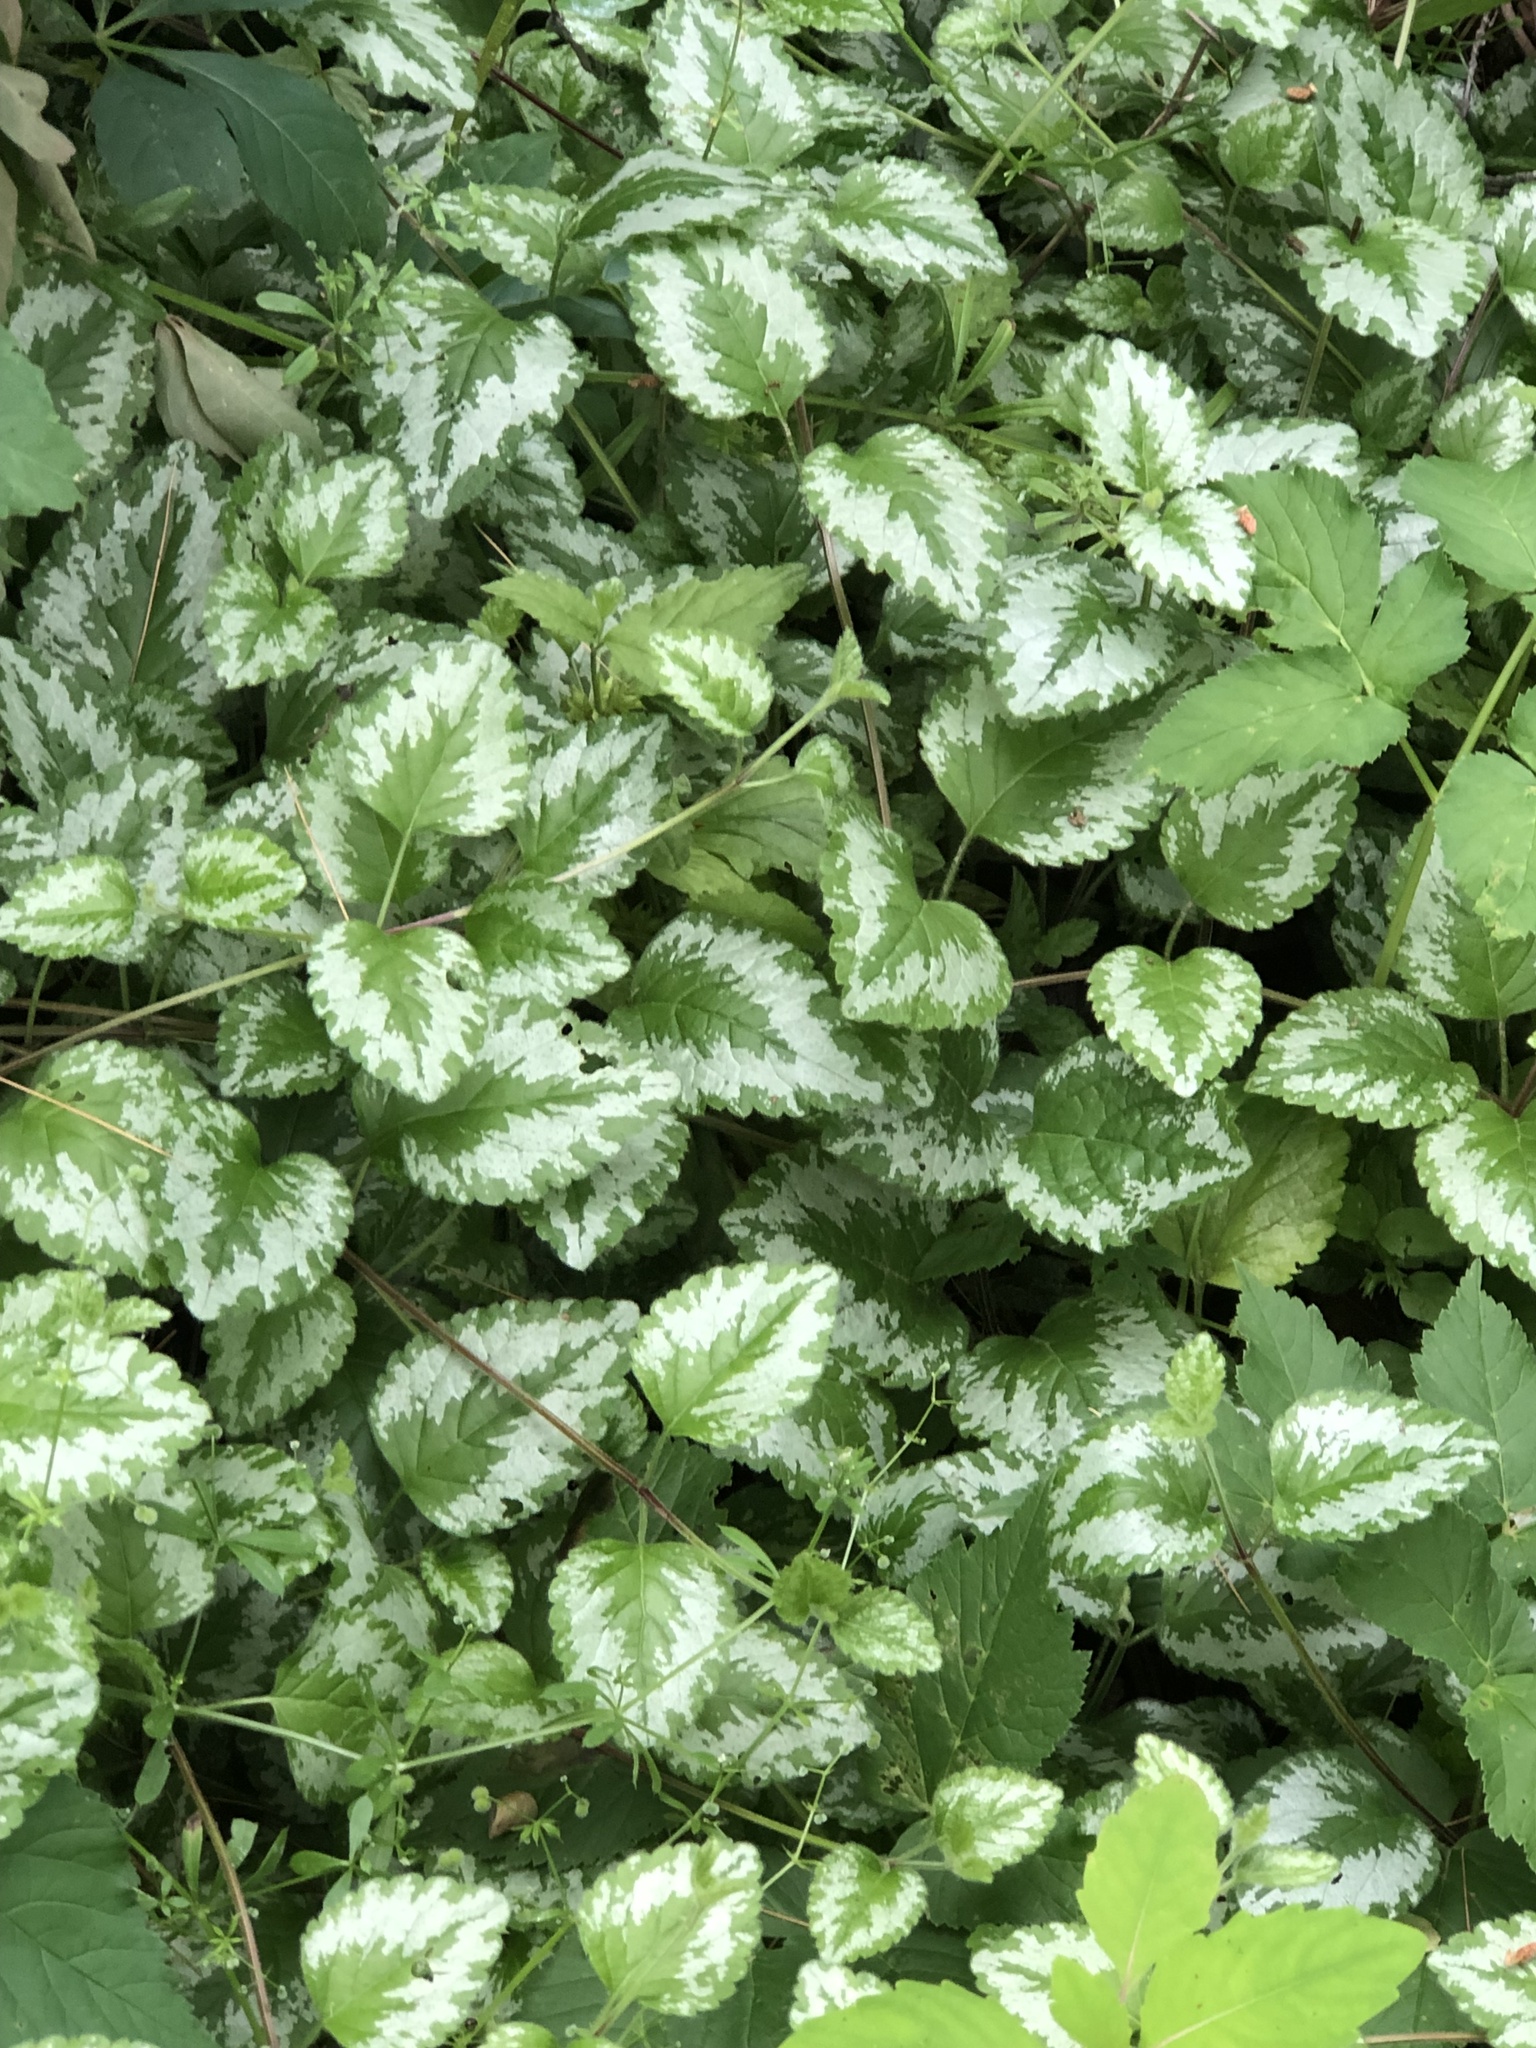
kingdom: Plantae
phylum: Tracheophyta
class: Magnoliopsida
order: Lamiales
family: Lamiaceae
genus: Lamium
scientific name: Lamium galeobdolon
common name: Yellow archangel
